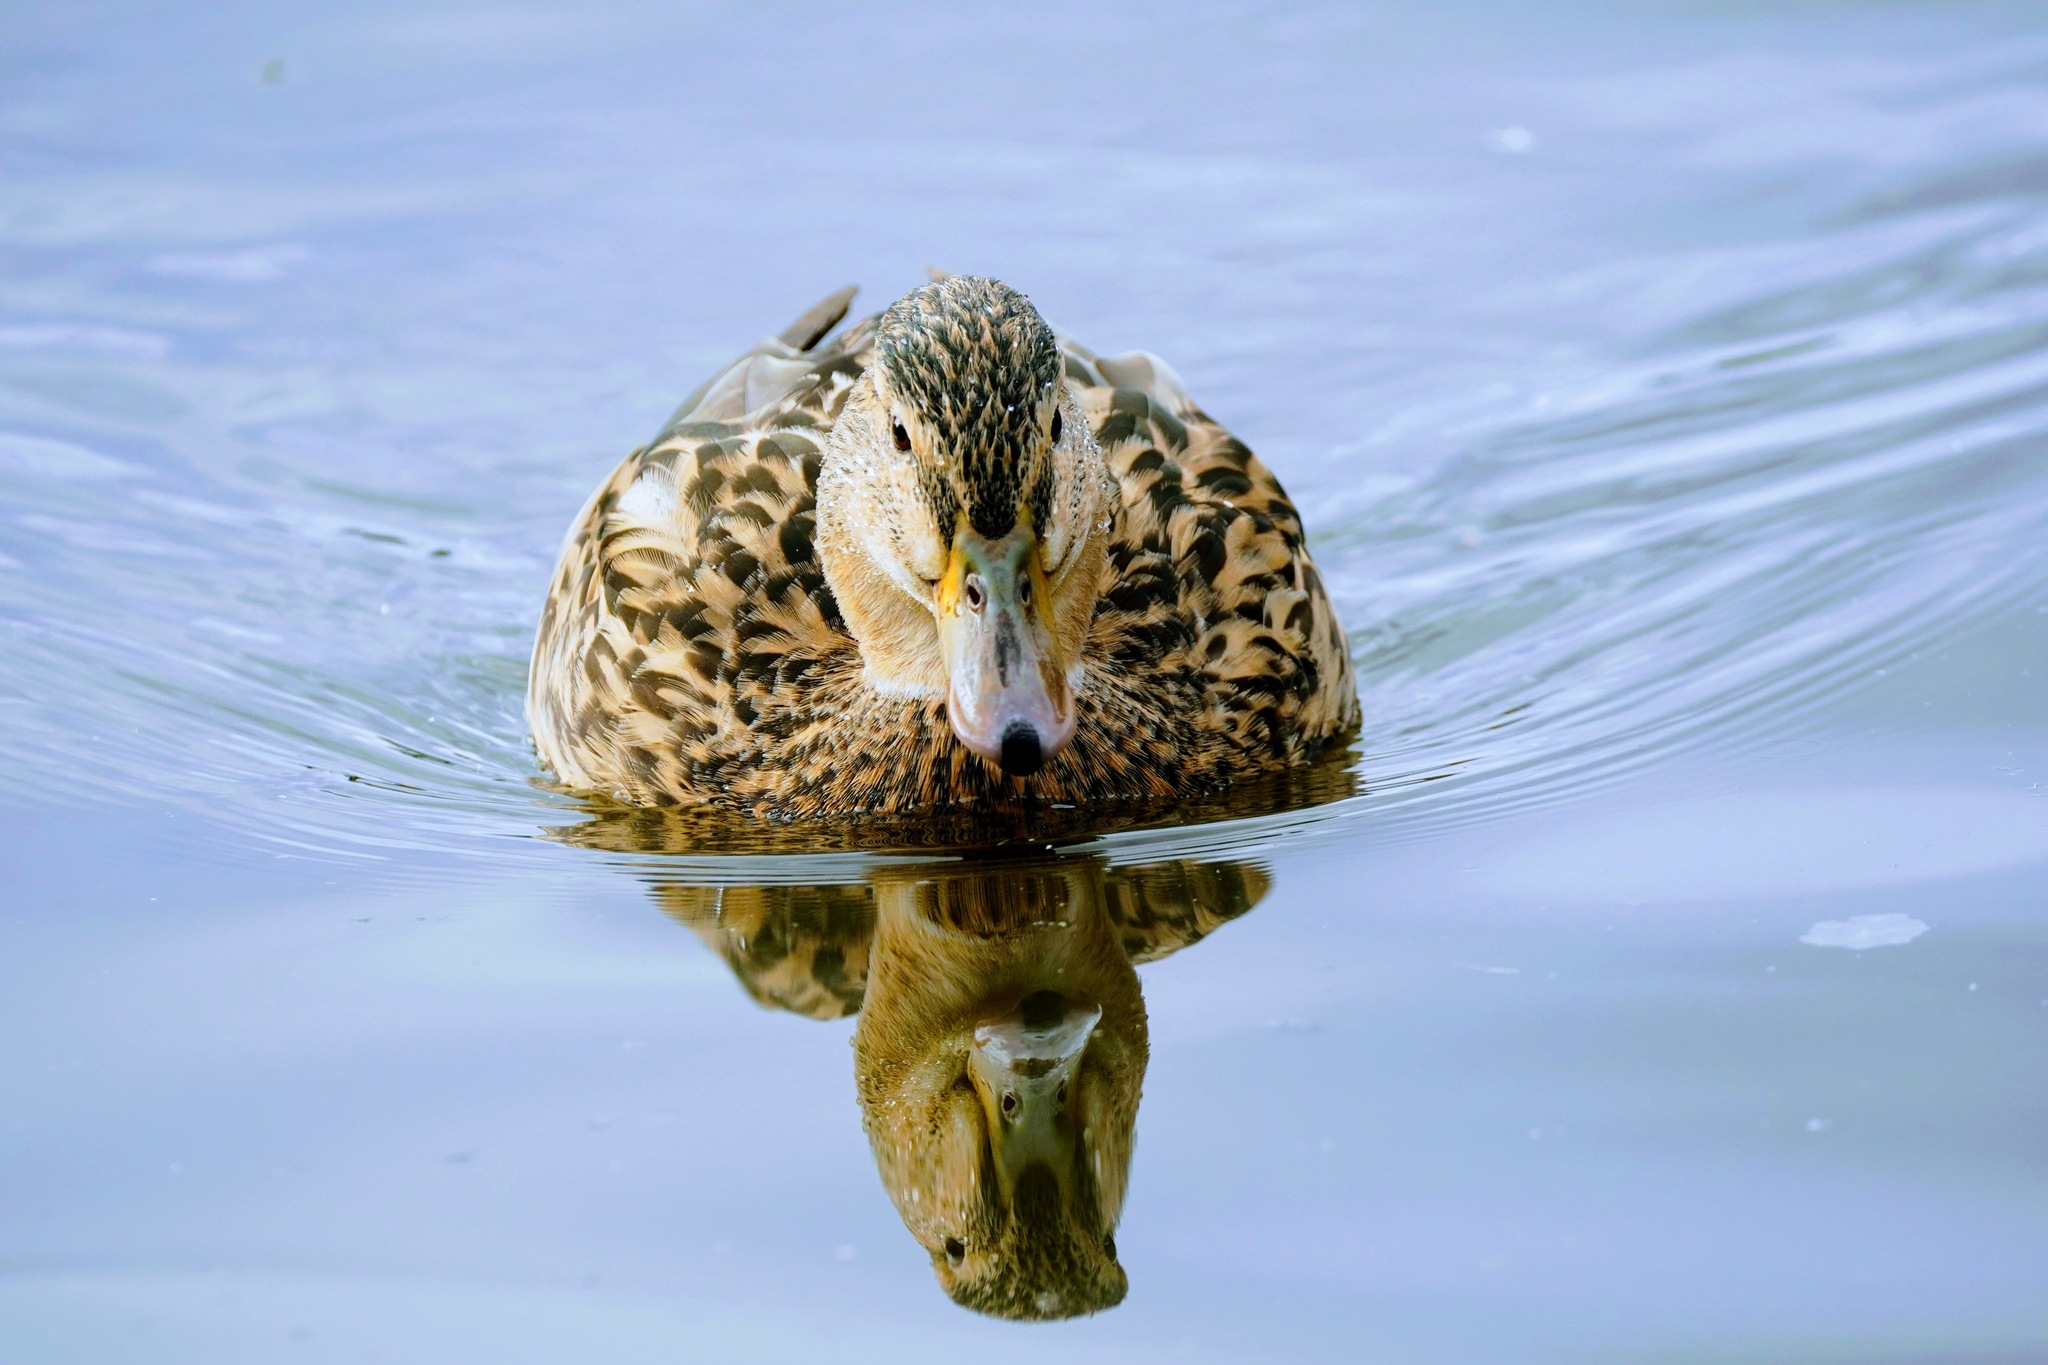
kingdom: Animalia
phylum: Chordata
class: Aves
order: Anseriformes
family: Anatidae
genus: Anas
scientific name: Anas platyrhynchos
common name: Mallard
